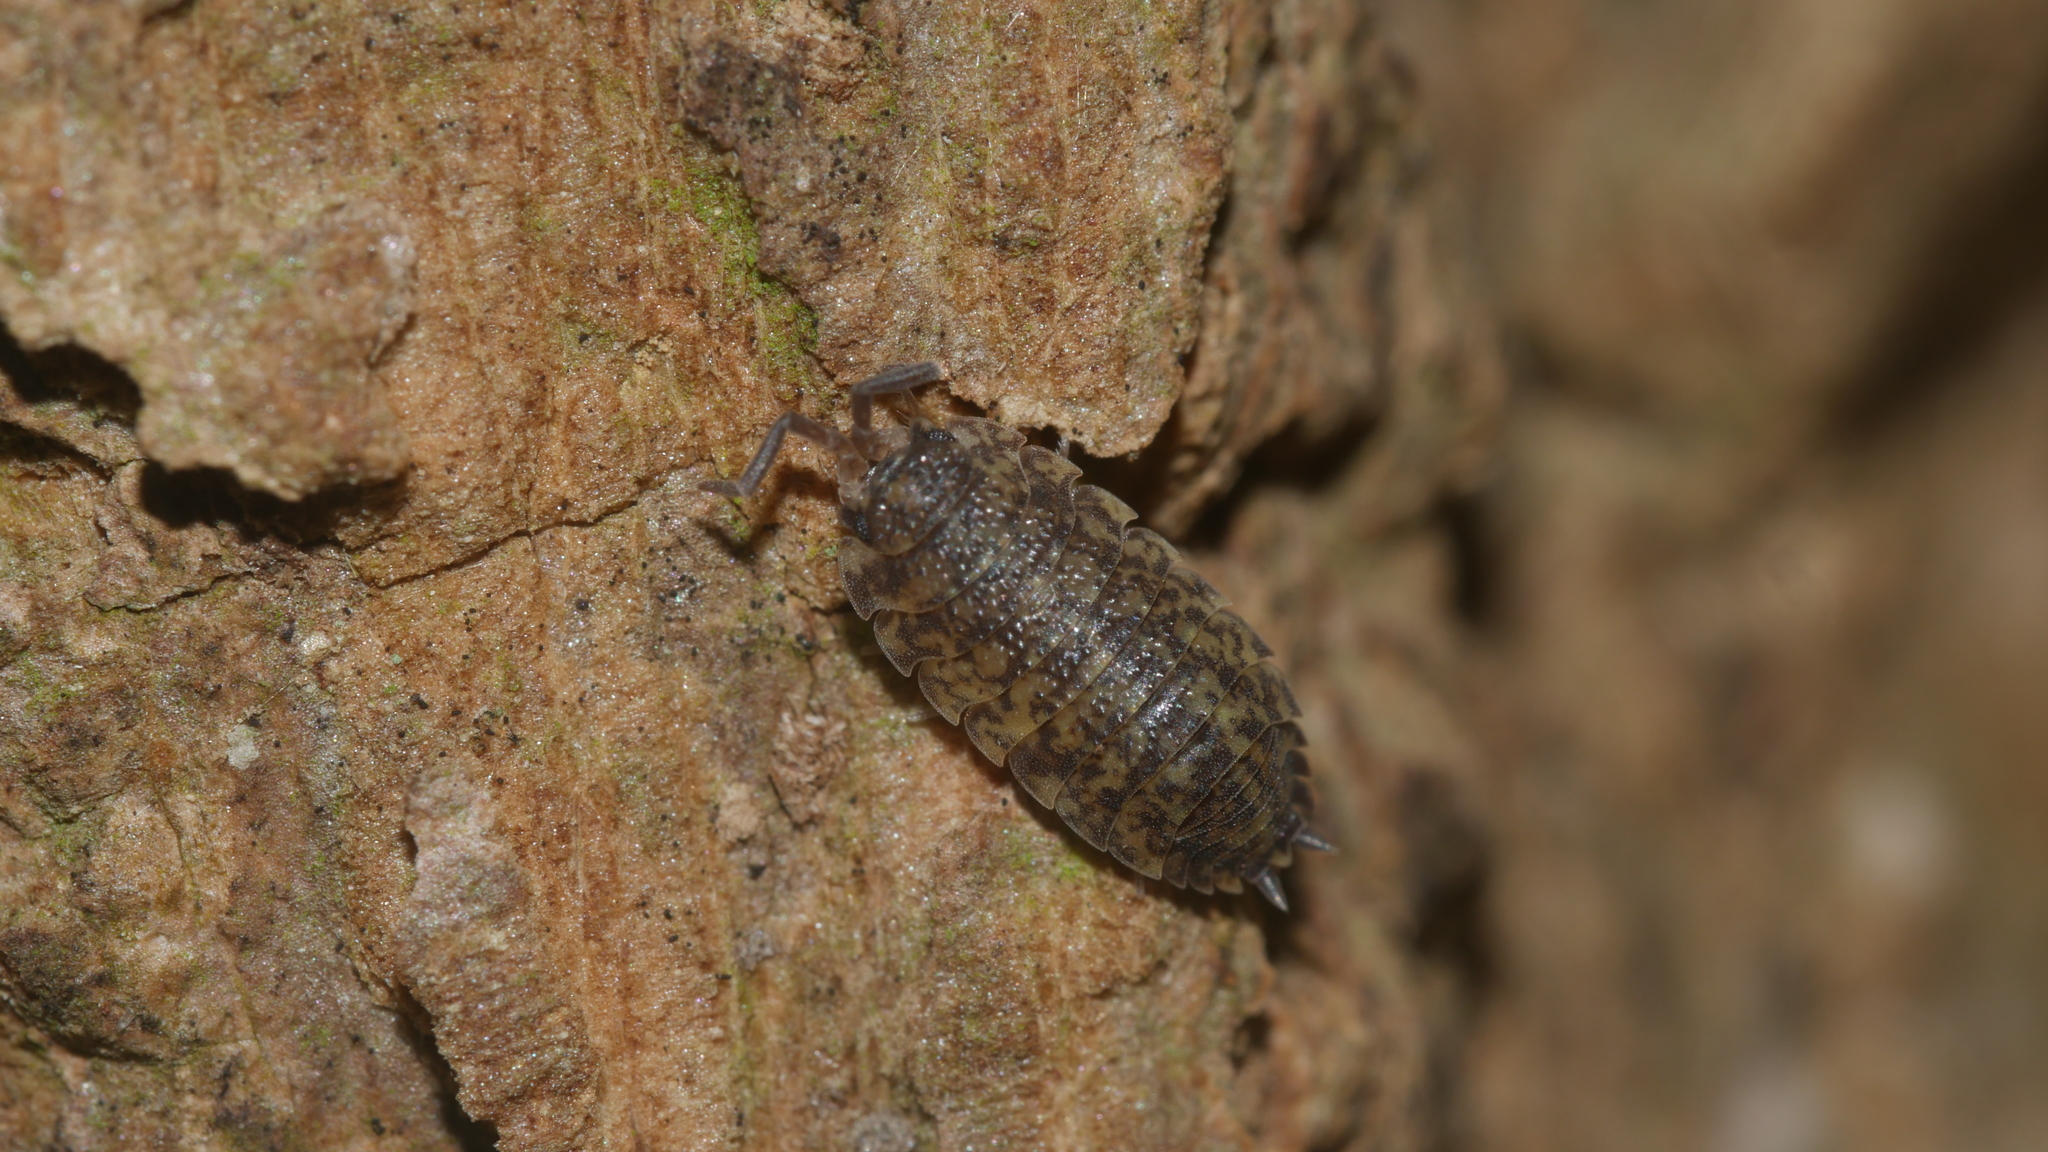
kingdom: Animalia
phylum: Arthropoda
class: Malacostraca
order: Isopoda
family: Porcellionidae
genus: Porcellio
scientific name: Porcellio scaber
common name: Common rough woodlouse
